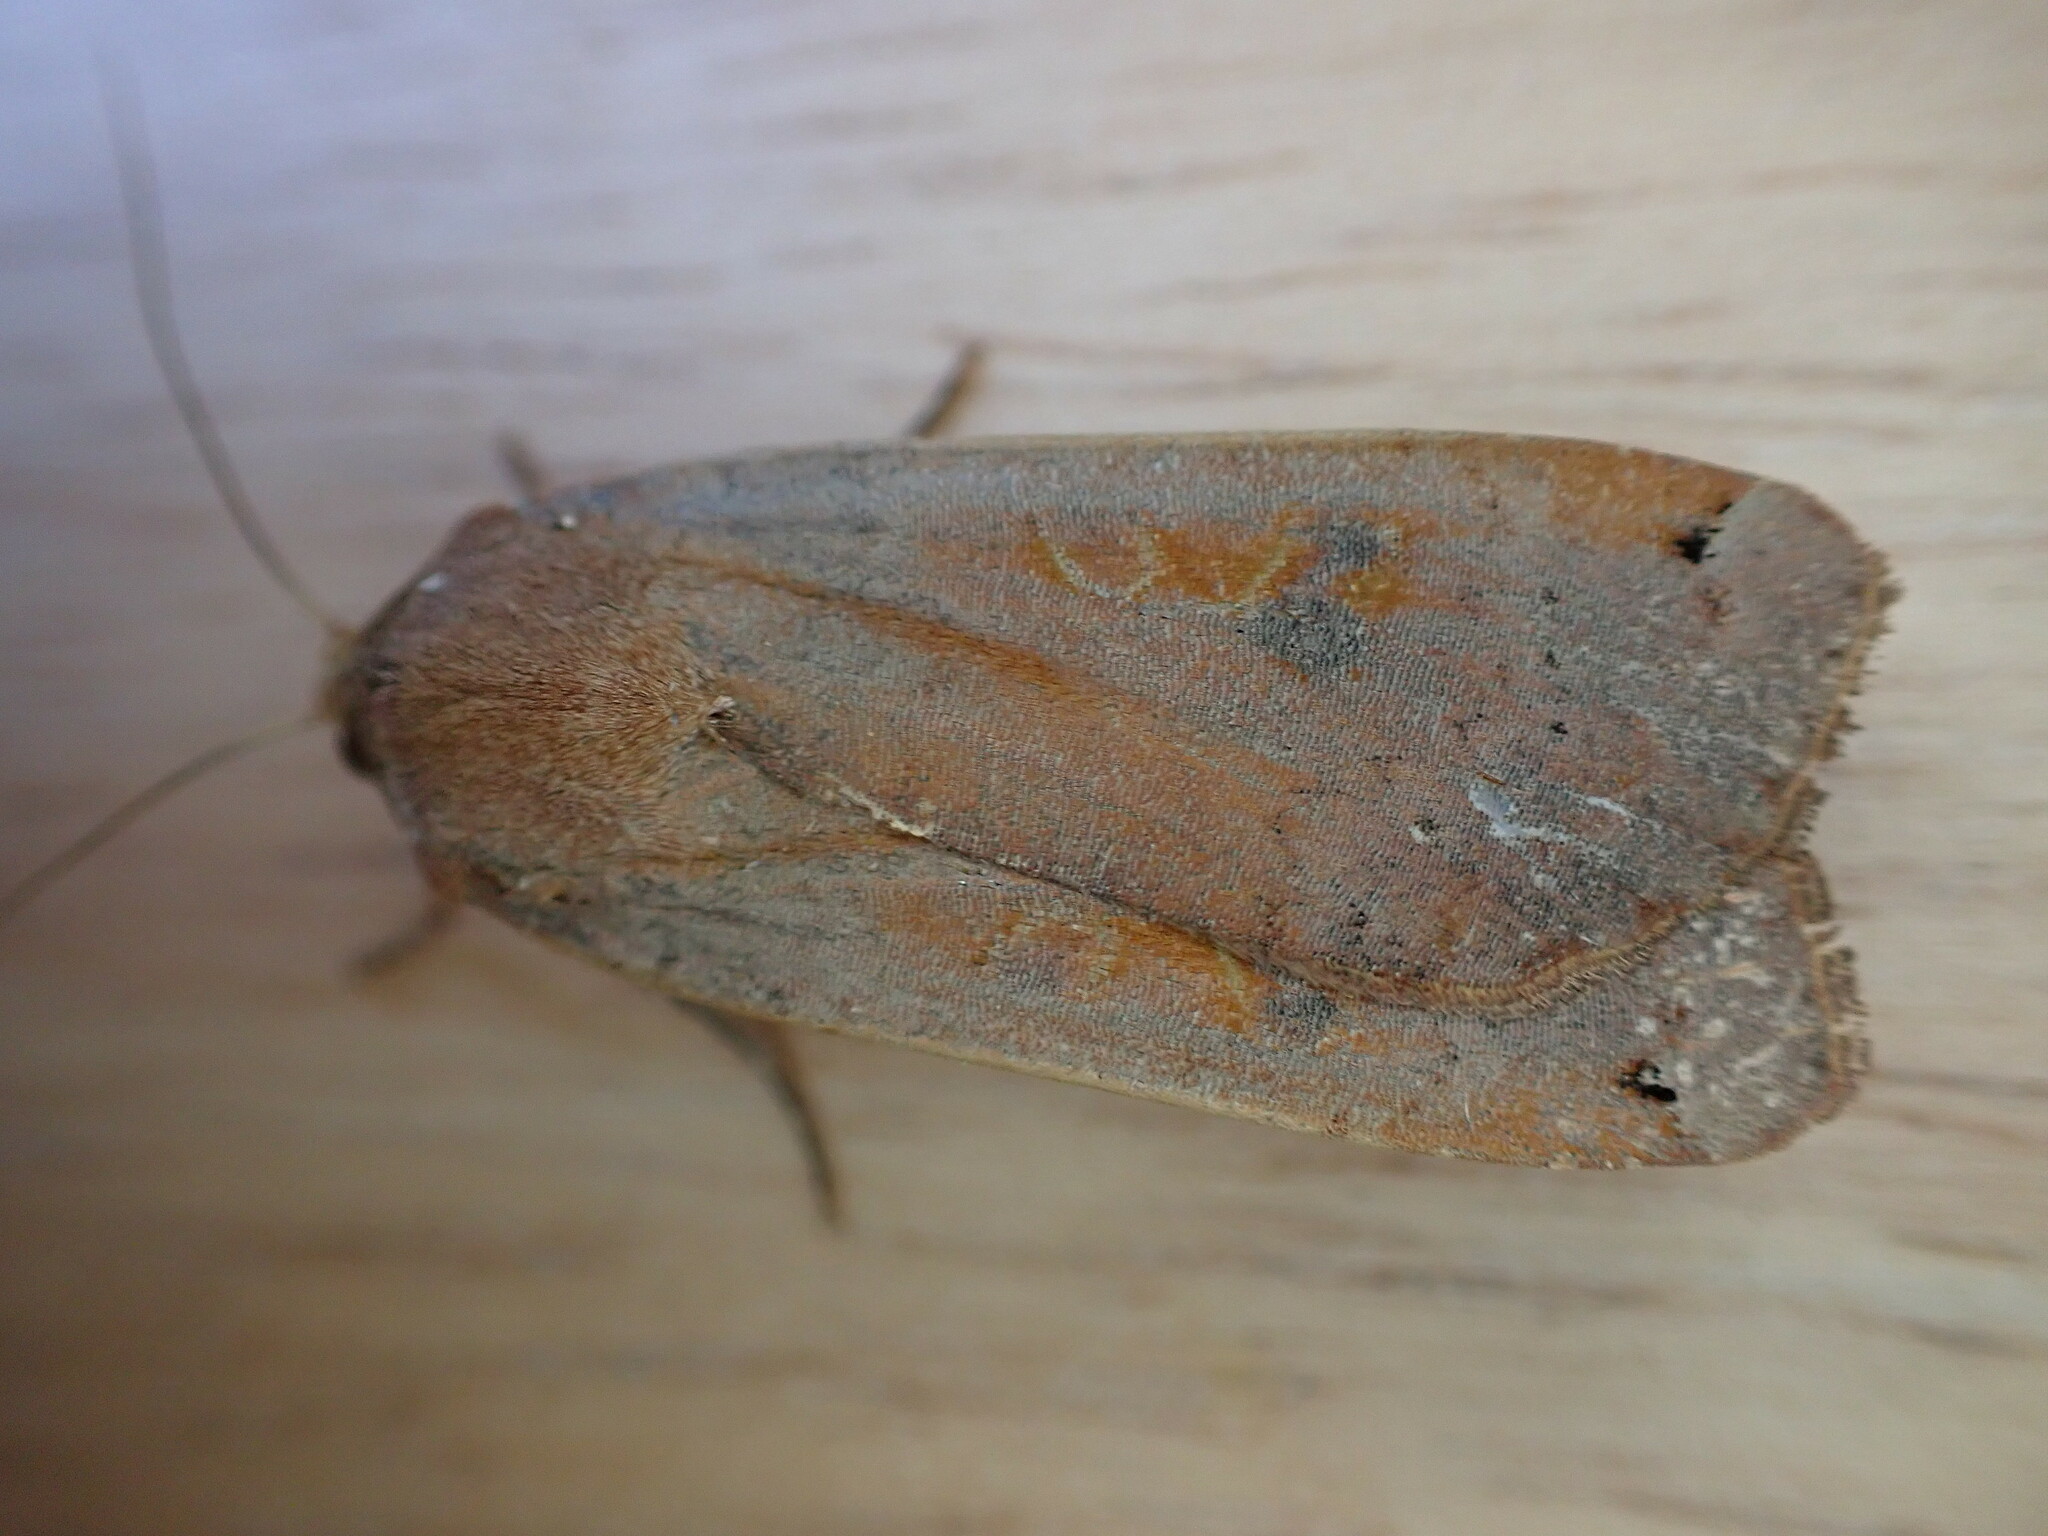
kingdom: Animalia
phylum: Arthropoda
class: Insecta
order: Lepidoptera
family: Noctuidae
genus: Noctua
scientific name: Noctua pronuba
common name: Large yellow underwing
